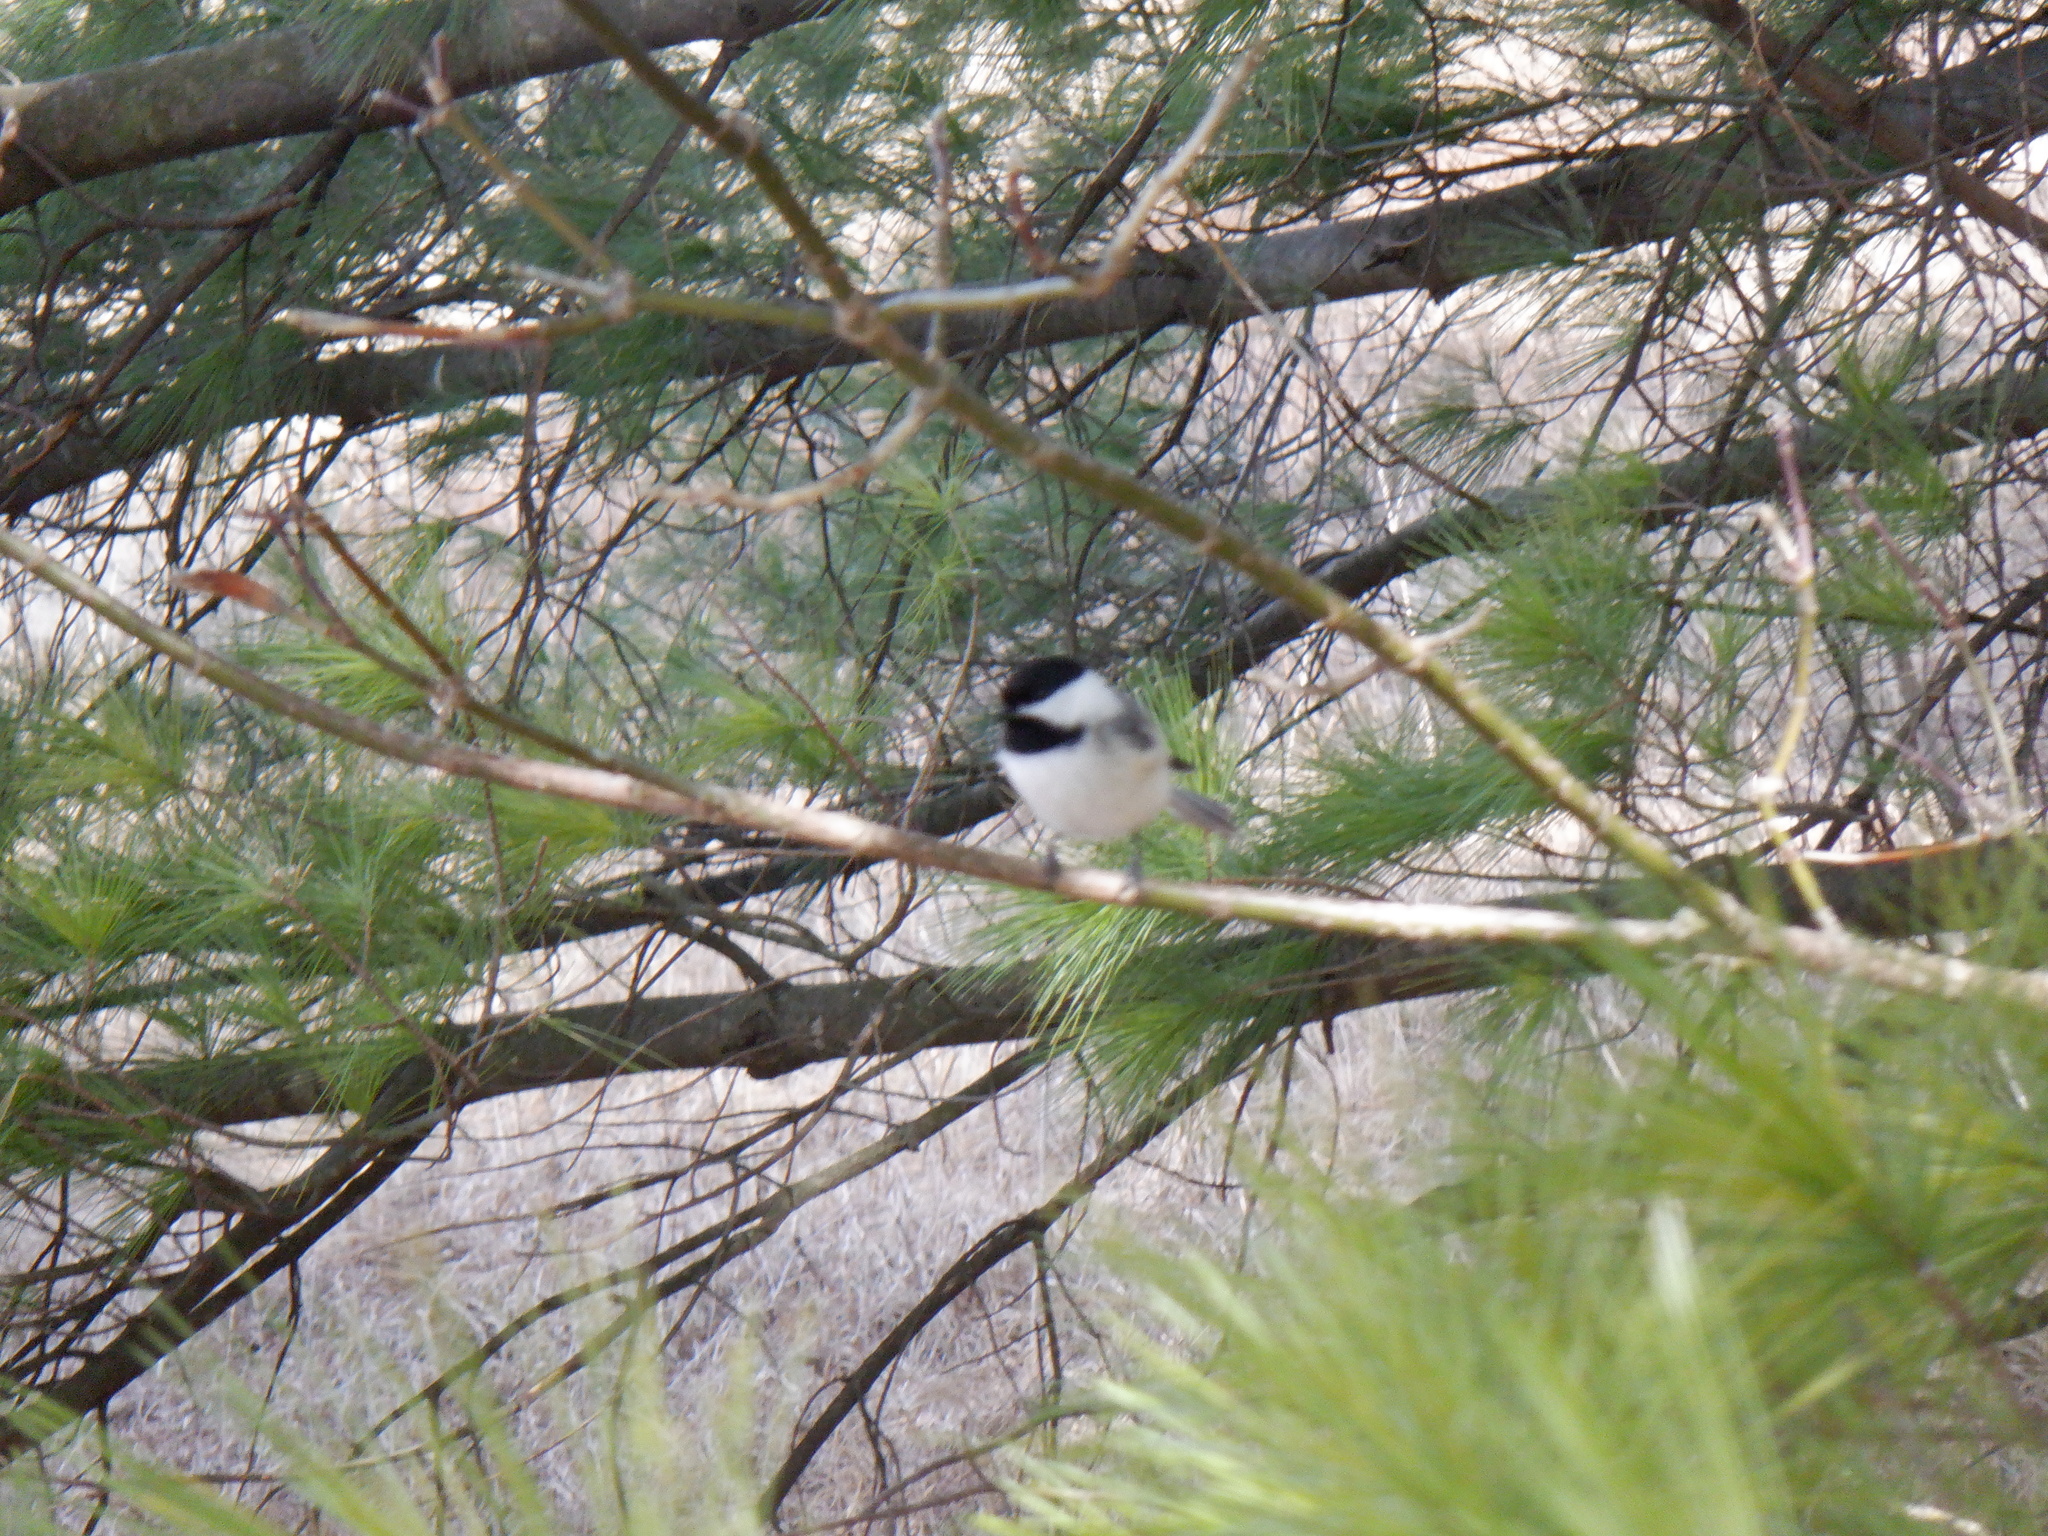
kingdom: Animalia
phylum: Chordata
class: Aves
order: Passeriformes
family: Paridae
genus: Poecile
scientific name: Poecile atricapillus
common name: Black-capped chickadee
